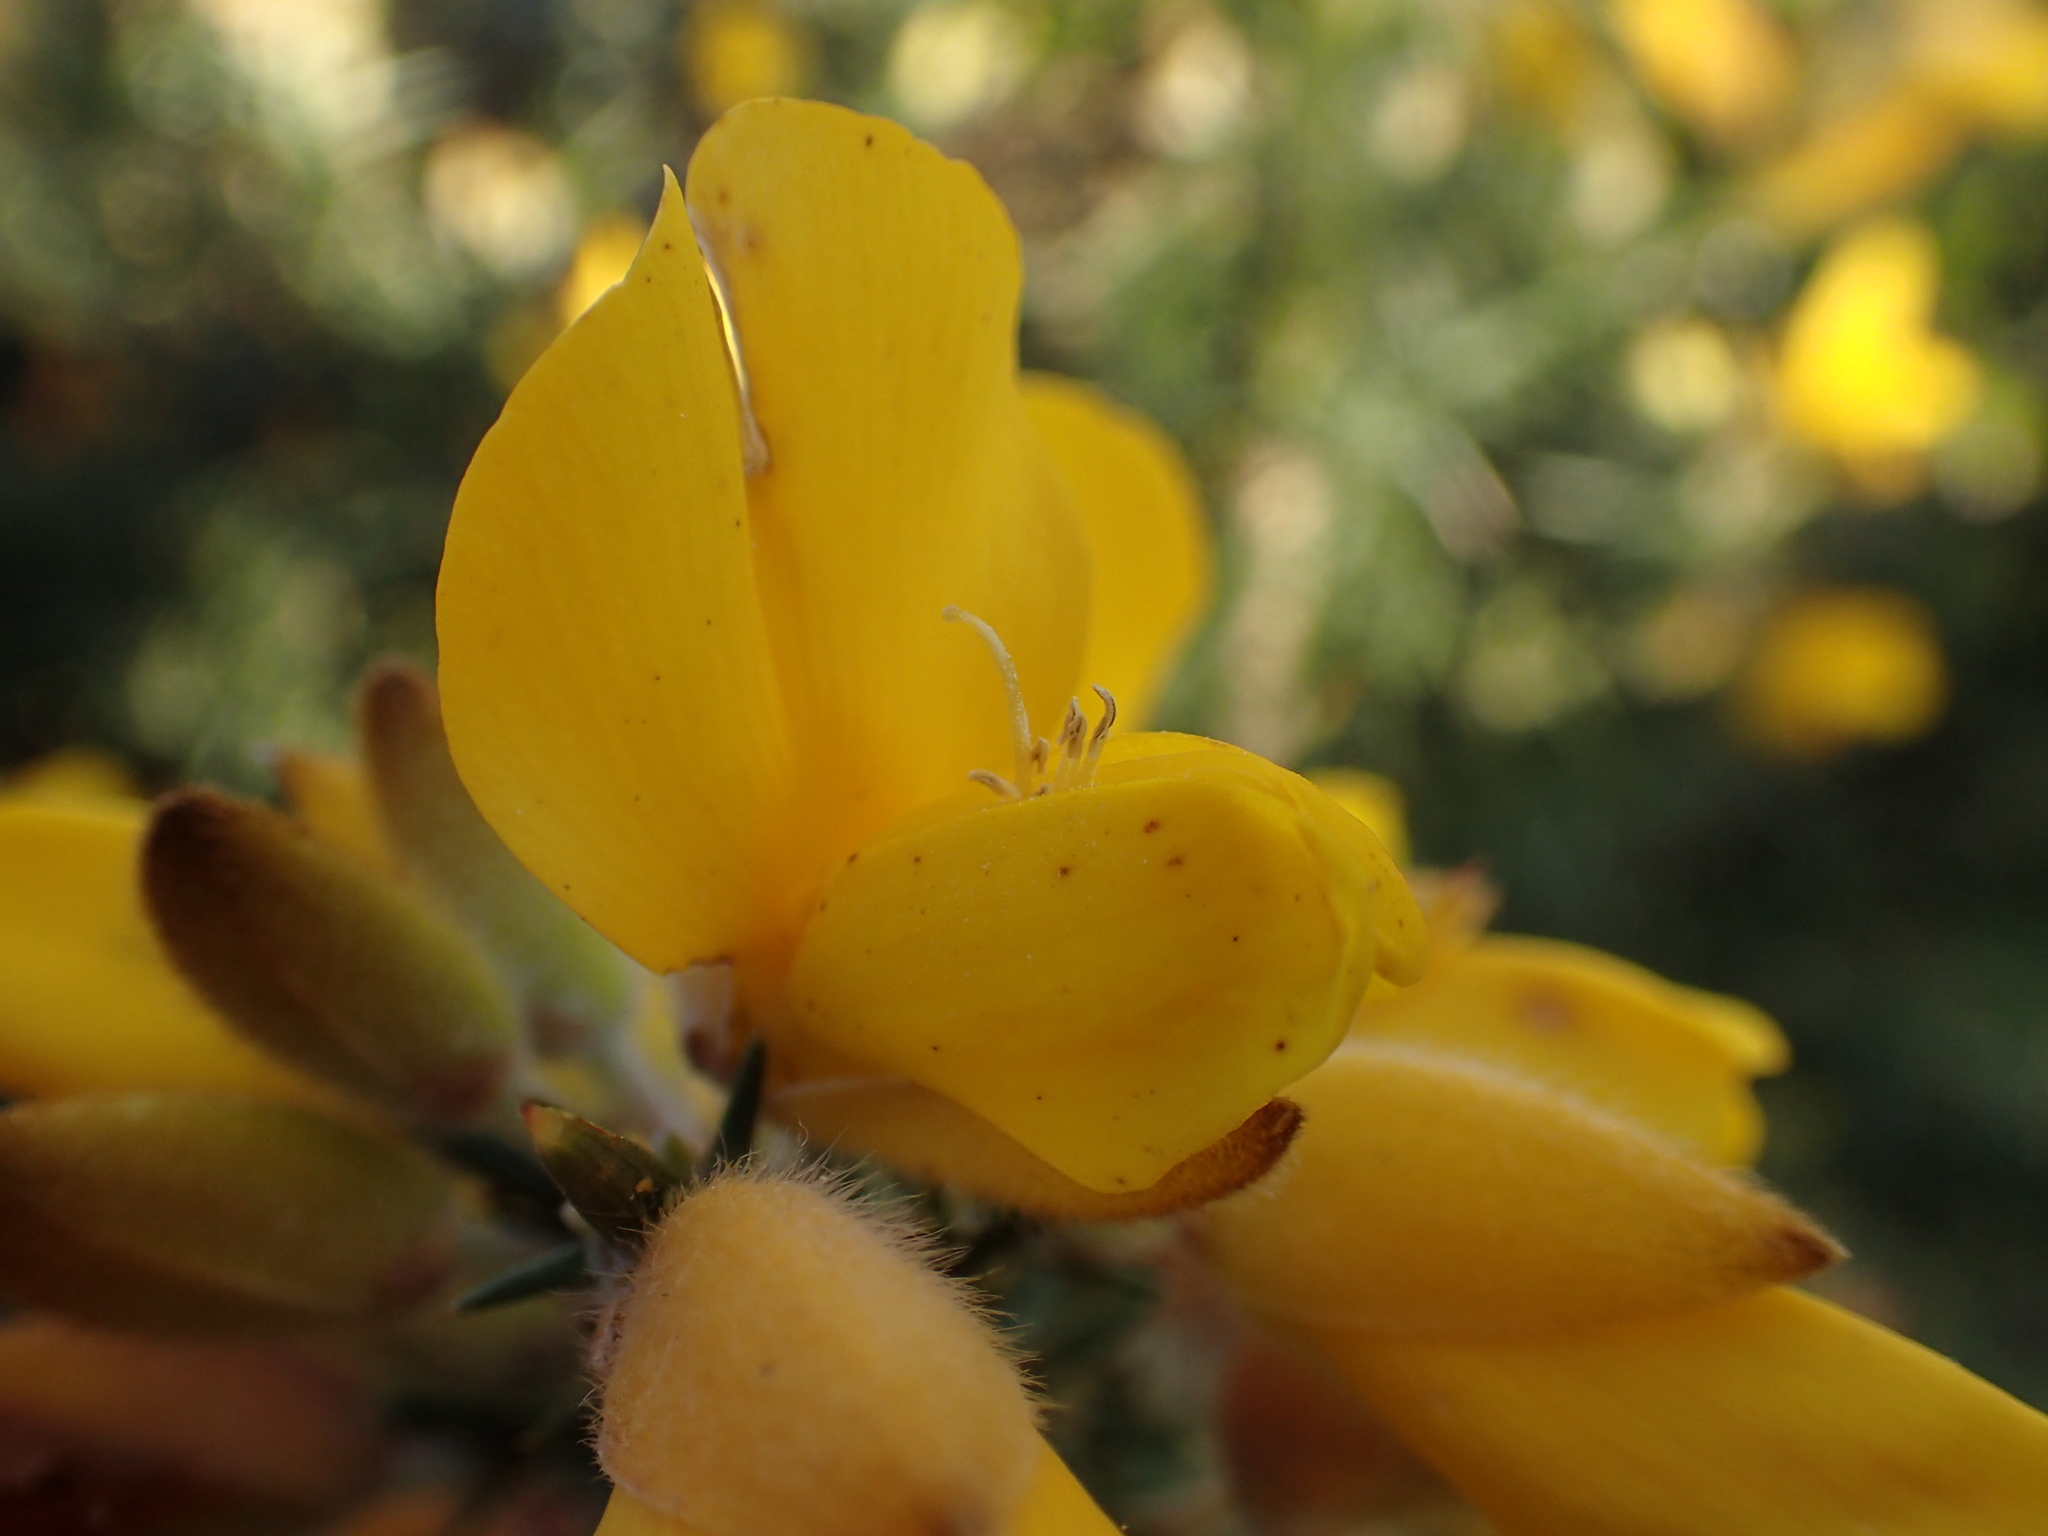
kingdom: Plantae
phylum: Tracheophyta
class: Magnoliopsida
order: Fabales
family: Fabaceae
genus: Ulex
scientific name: Ulex europaeus
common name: Common gorse
